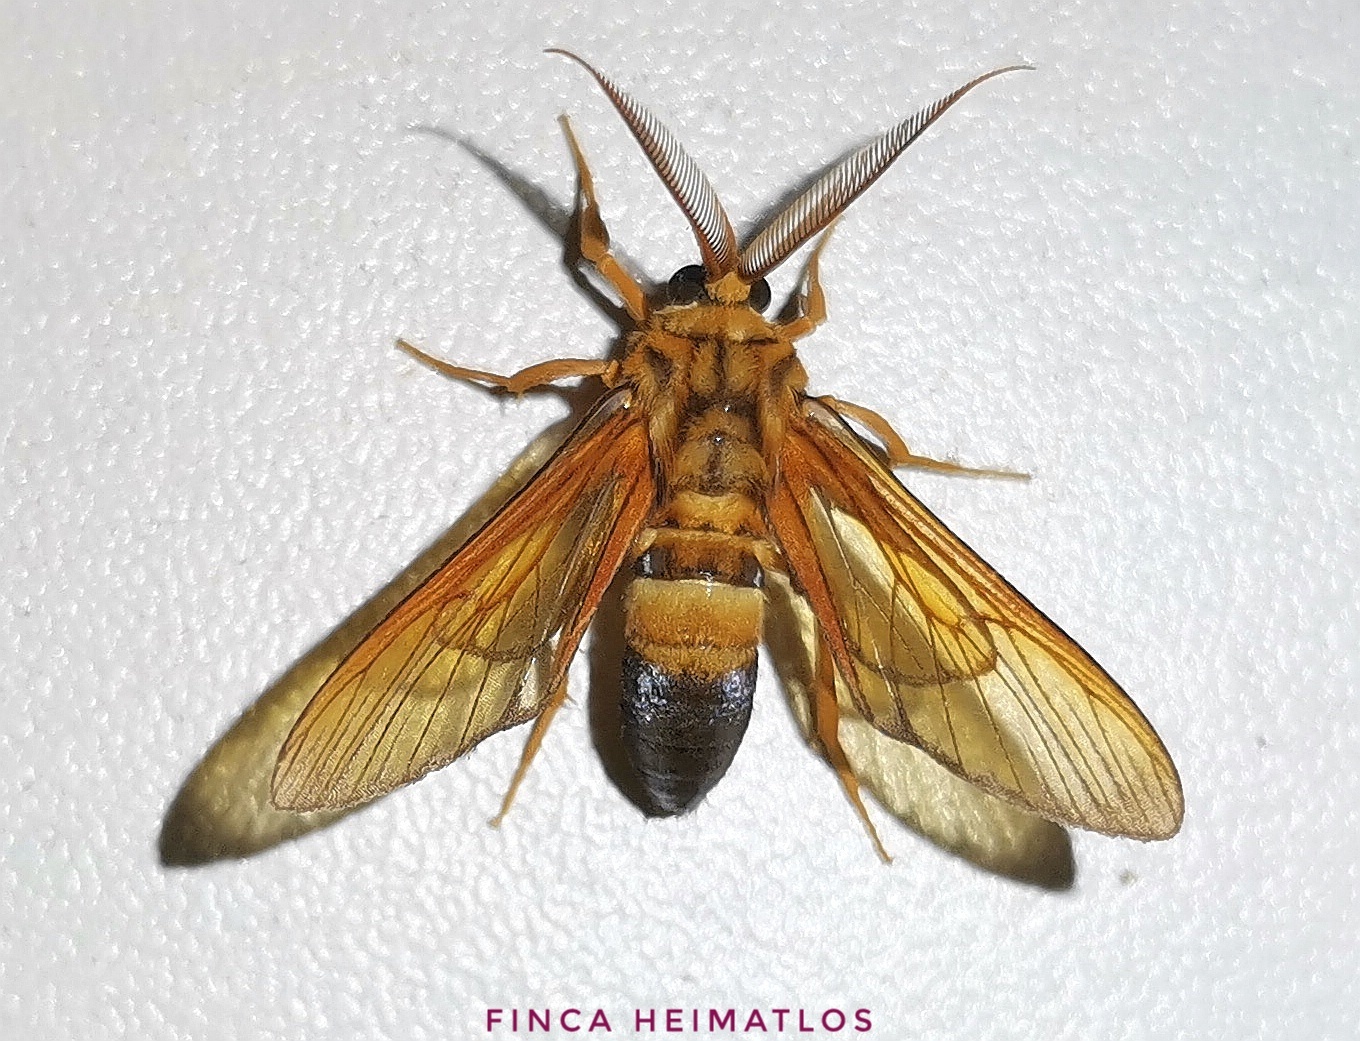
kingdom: Animalia
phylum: Arthropoda
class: Insecta
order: Lepidoptera
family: Erebidae
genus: Sarosa
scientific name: Sarosa acutior
